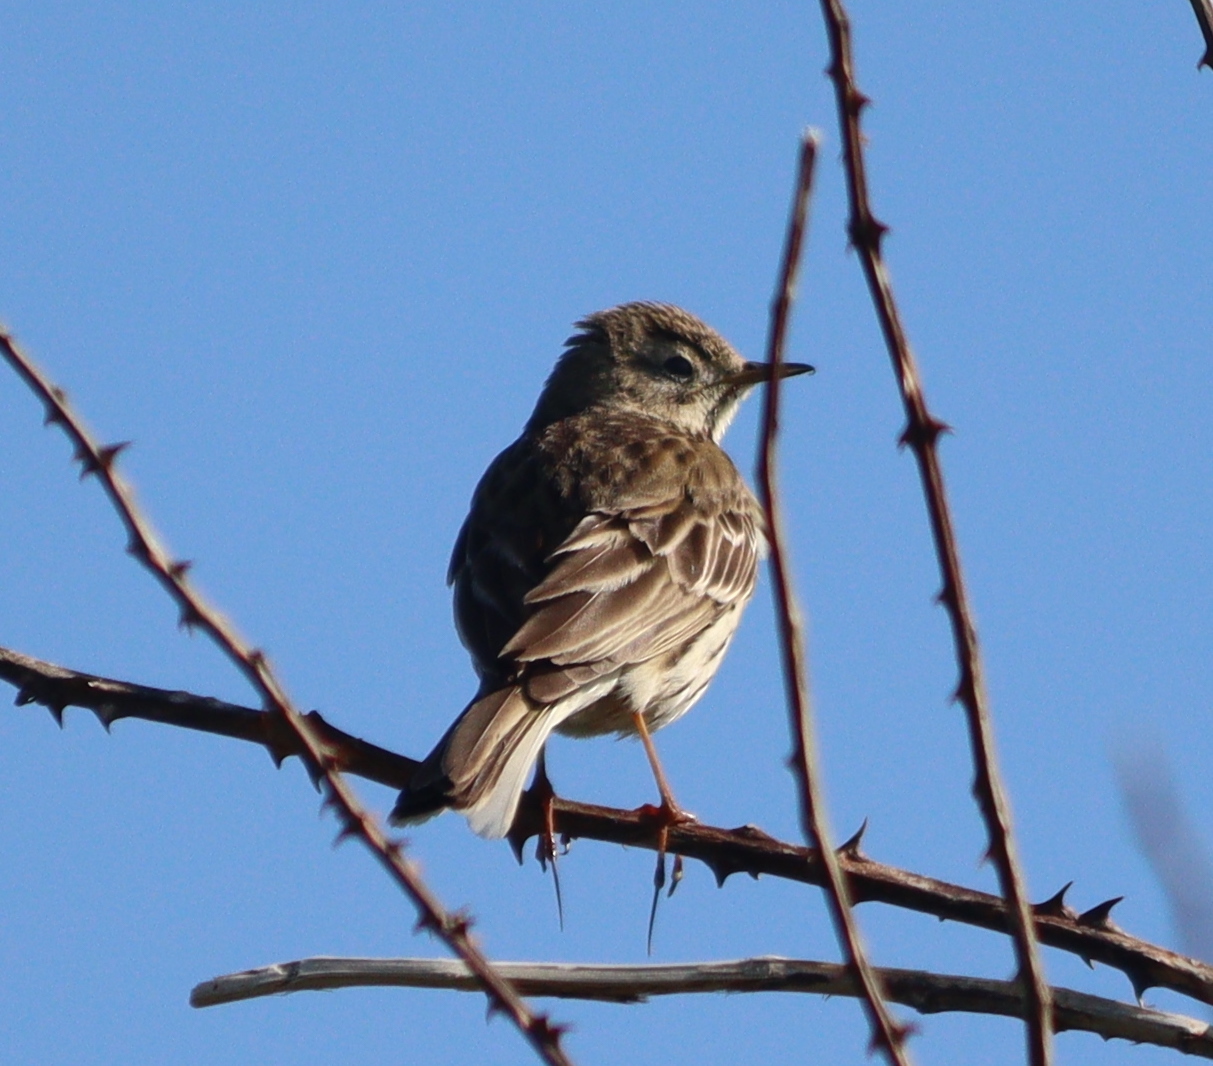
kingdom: Animalia
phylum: Chordata
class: Aves
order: Passeriformes
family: Motacillidae
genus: Anthus
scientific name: Anthus pratensis
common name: Meadow pipit
